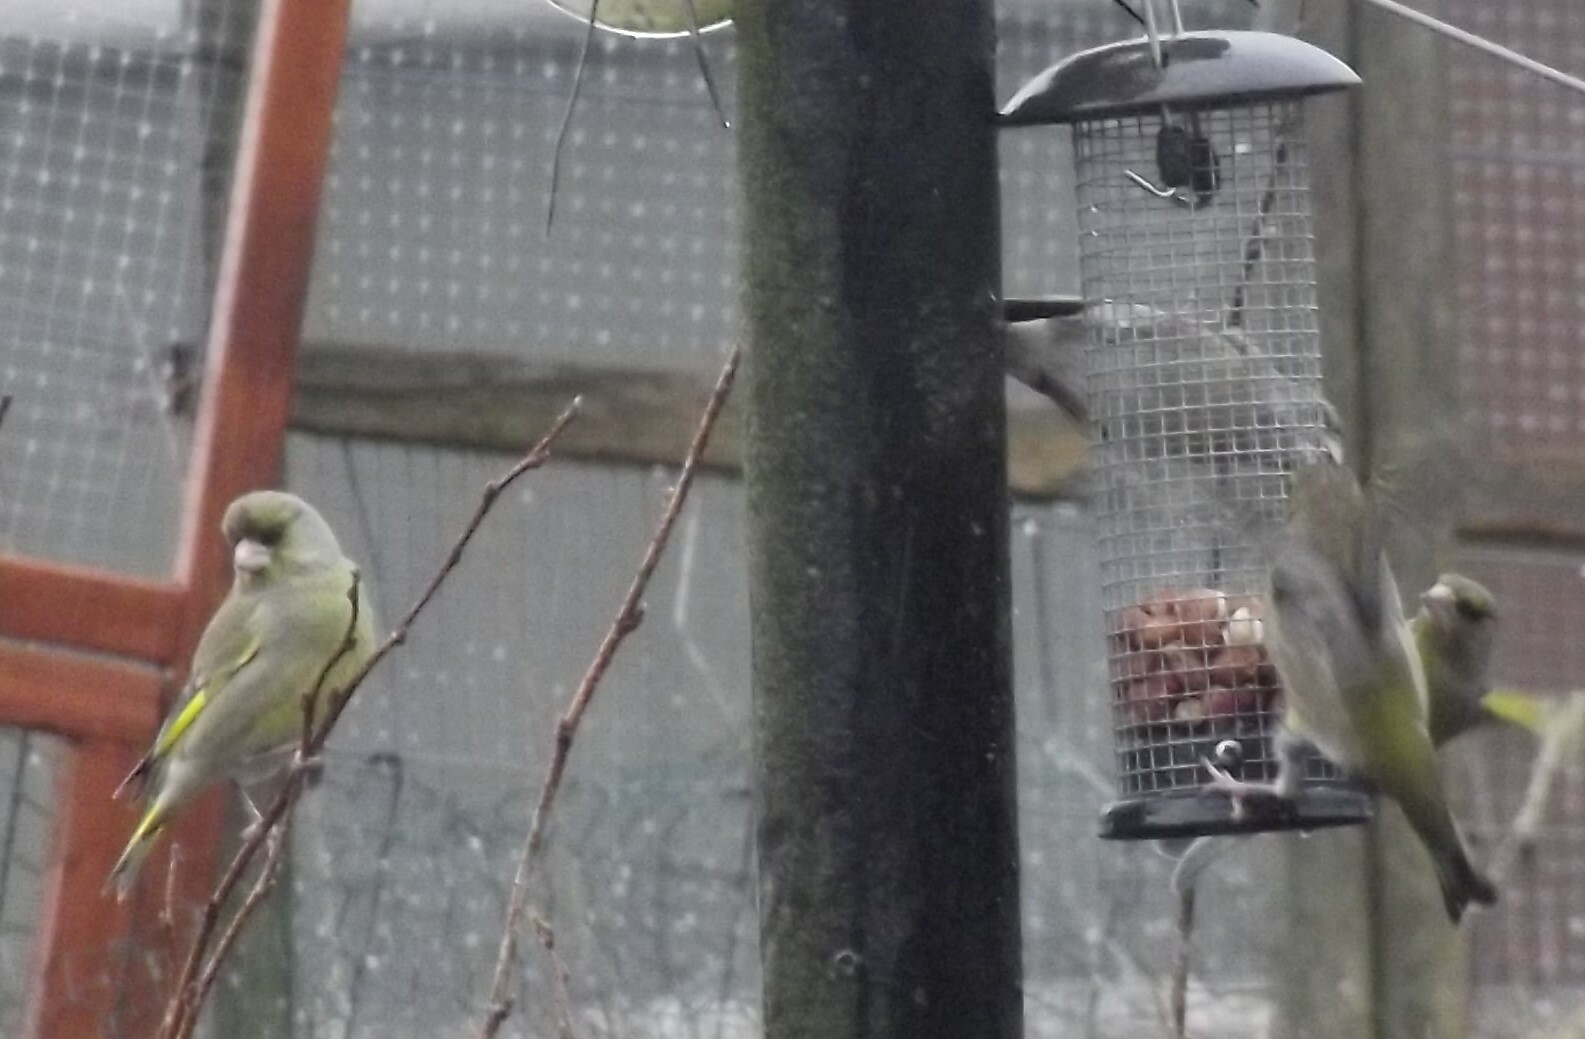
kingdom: Plantae
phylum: Tracheophyta
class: Liliopsida
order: Poales
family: Poaceae
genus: Chloris
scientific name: Chloris chloris
